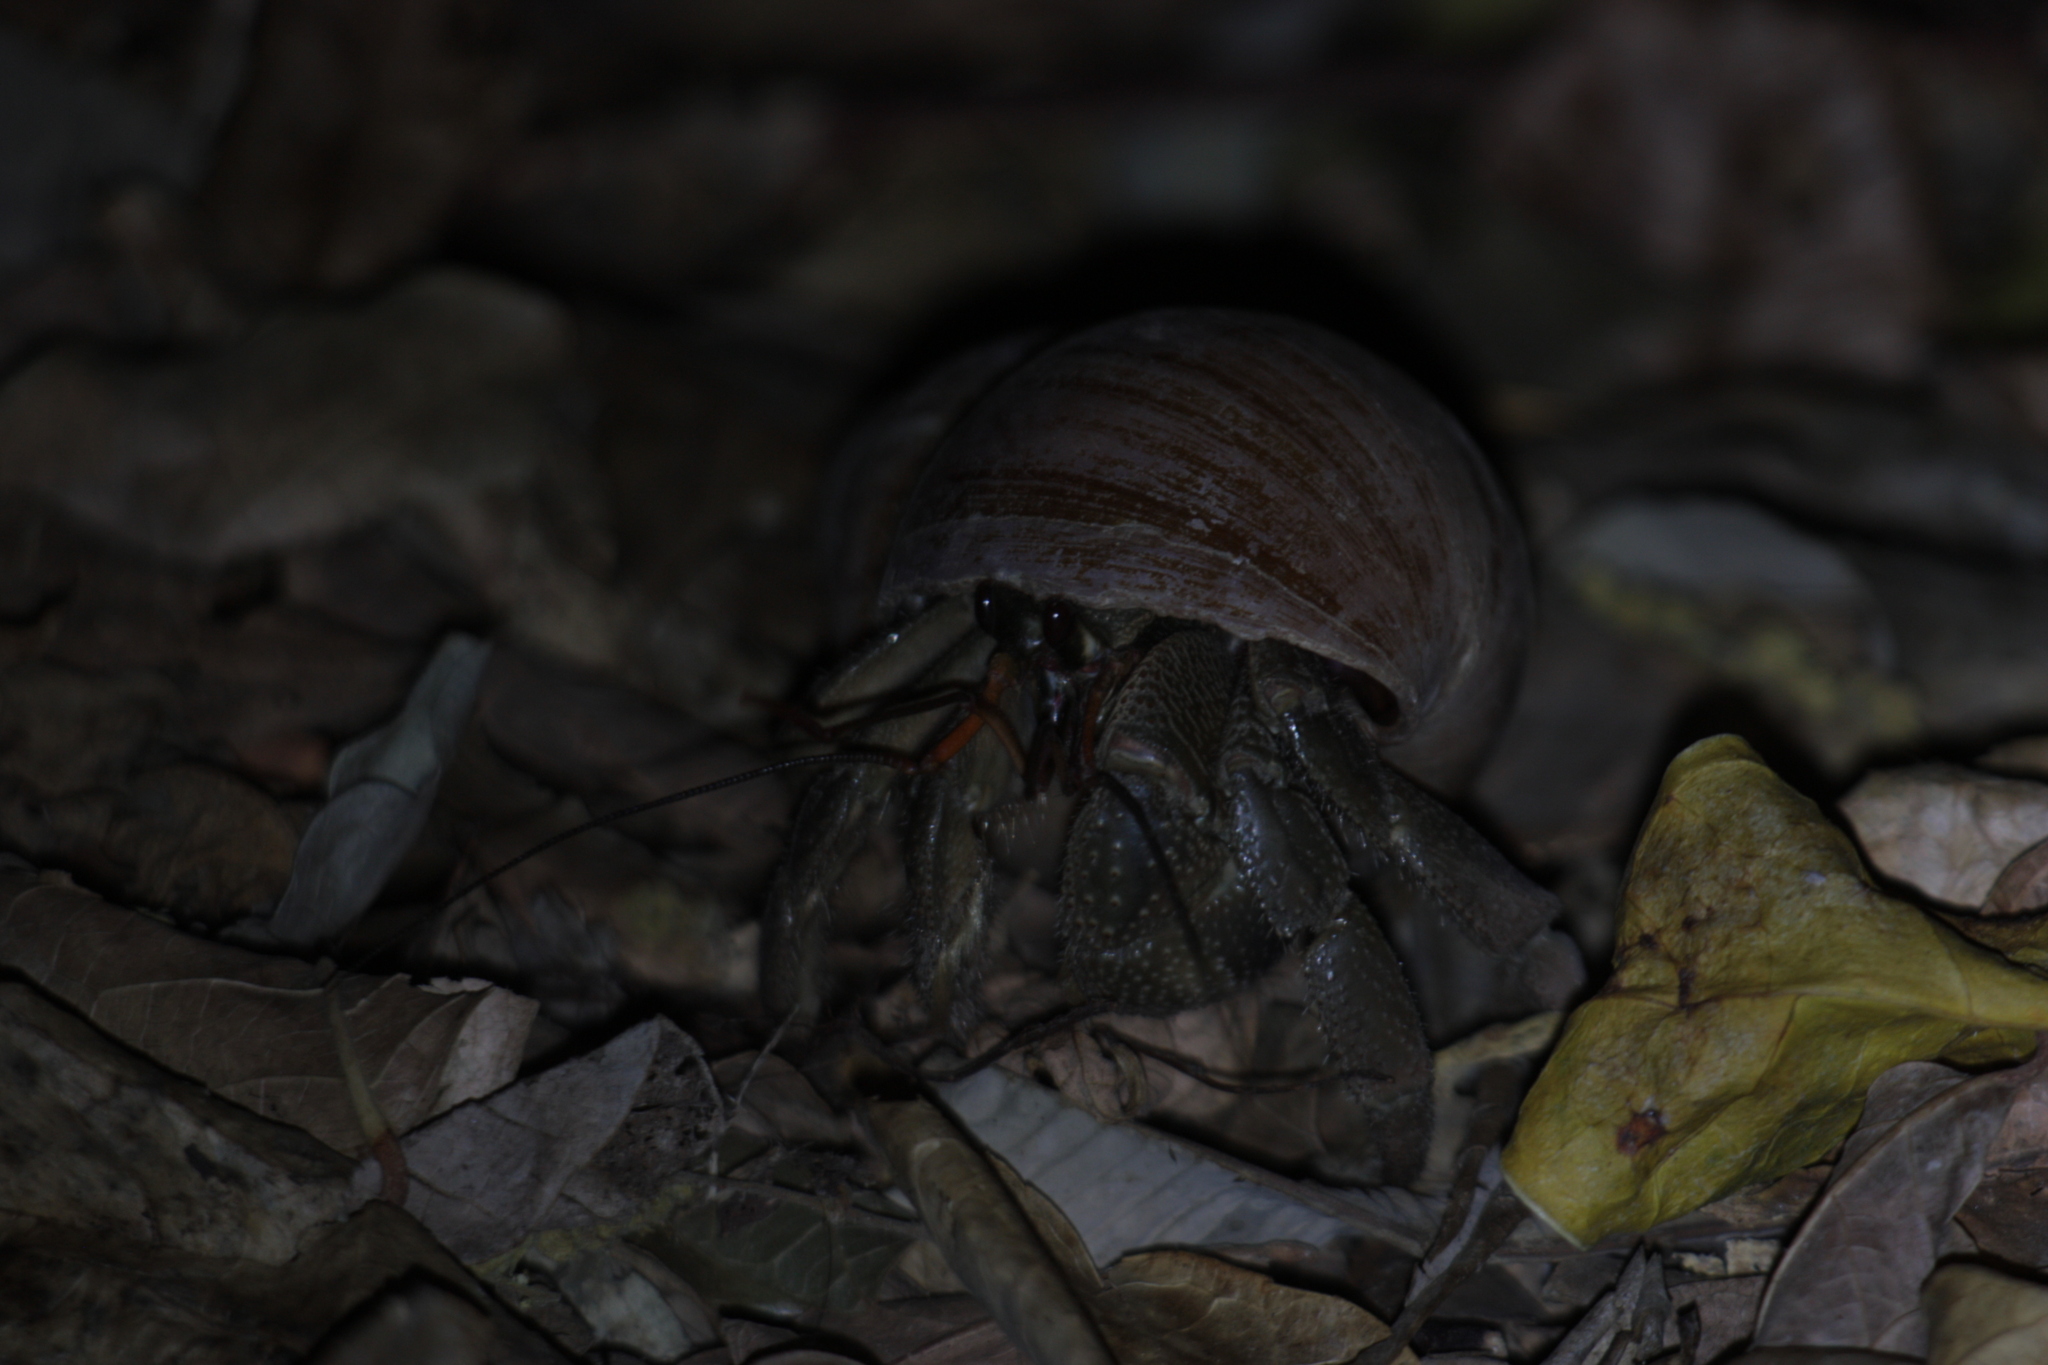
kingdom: Animalia
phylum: Arthropoda
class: Malacostraca
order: Decapoda
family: Coenobitidae
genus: Coenobita
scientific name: Coenobita cavipes
